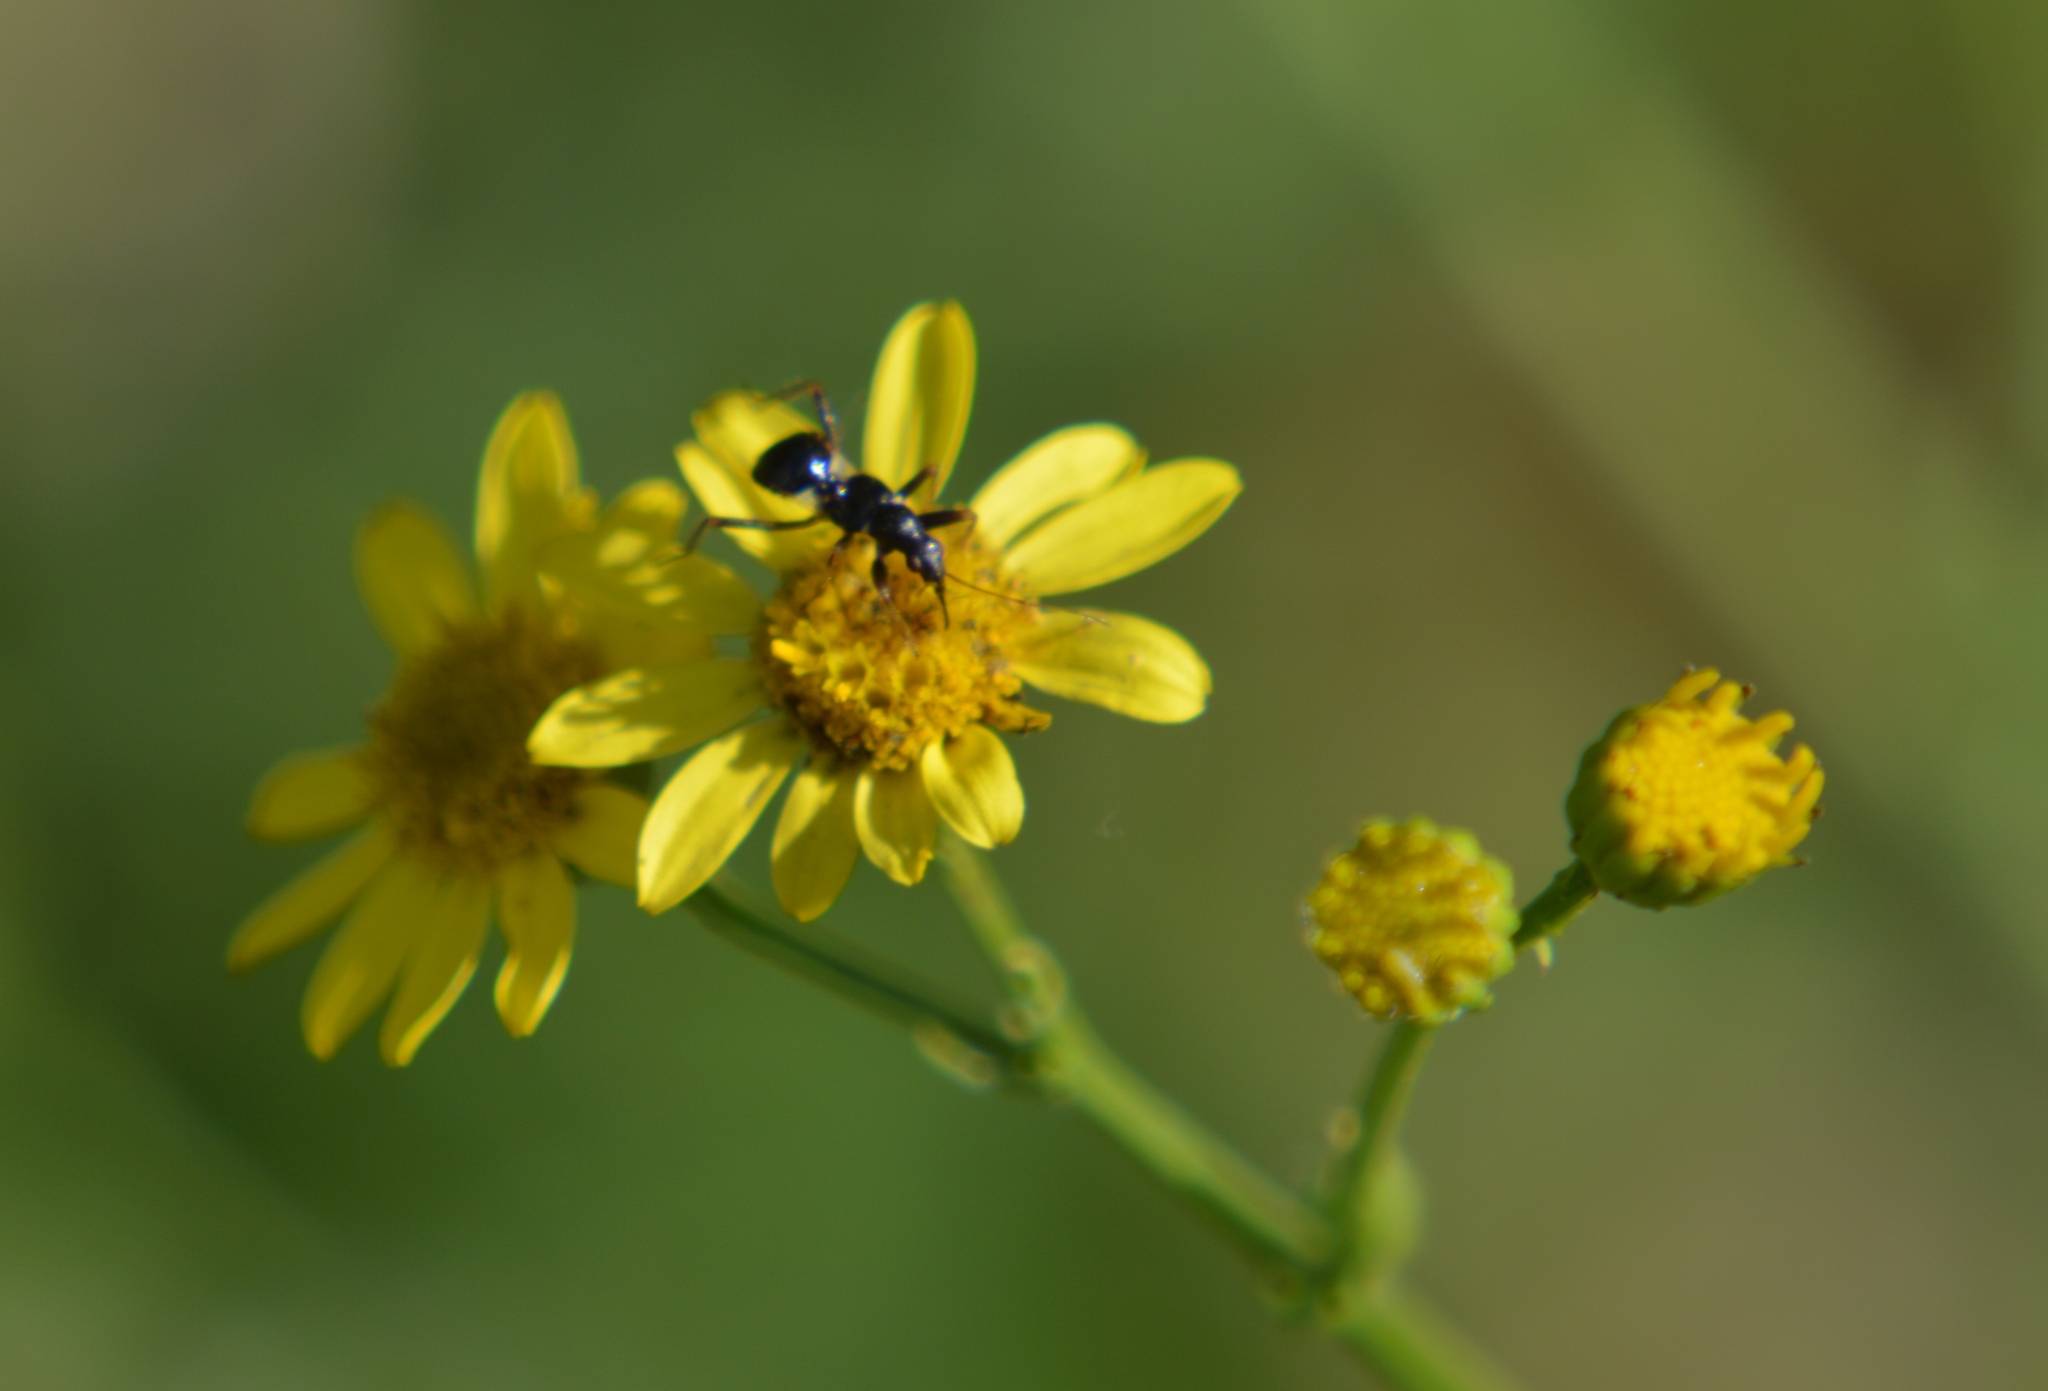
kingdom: Animalia
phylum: Arthropoda
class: Insecta
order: Hemiptera
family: Nabidae
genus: Himacerus
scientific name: Himacerus mirmicoides
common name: Ant damsel bug
